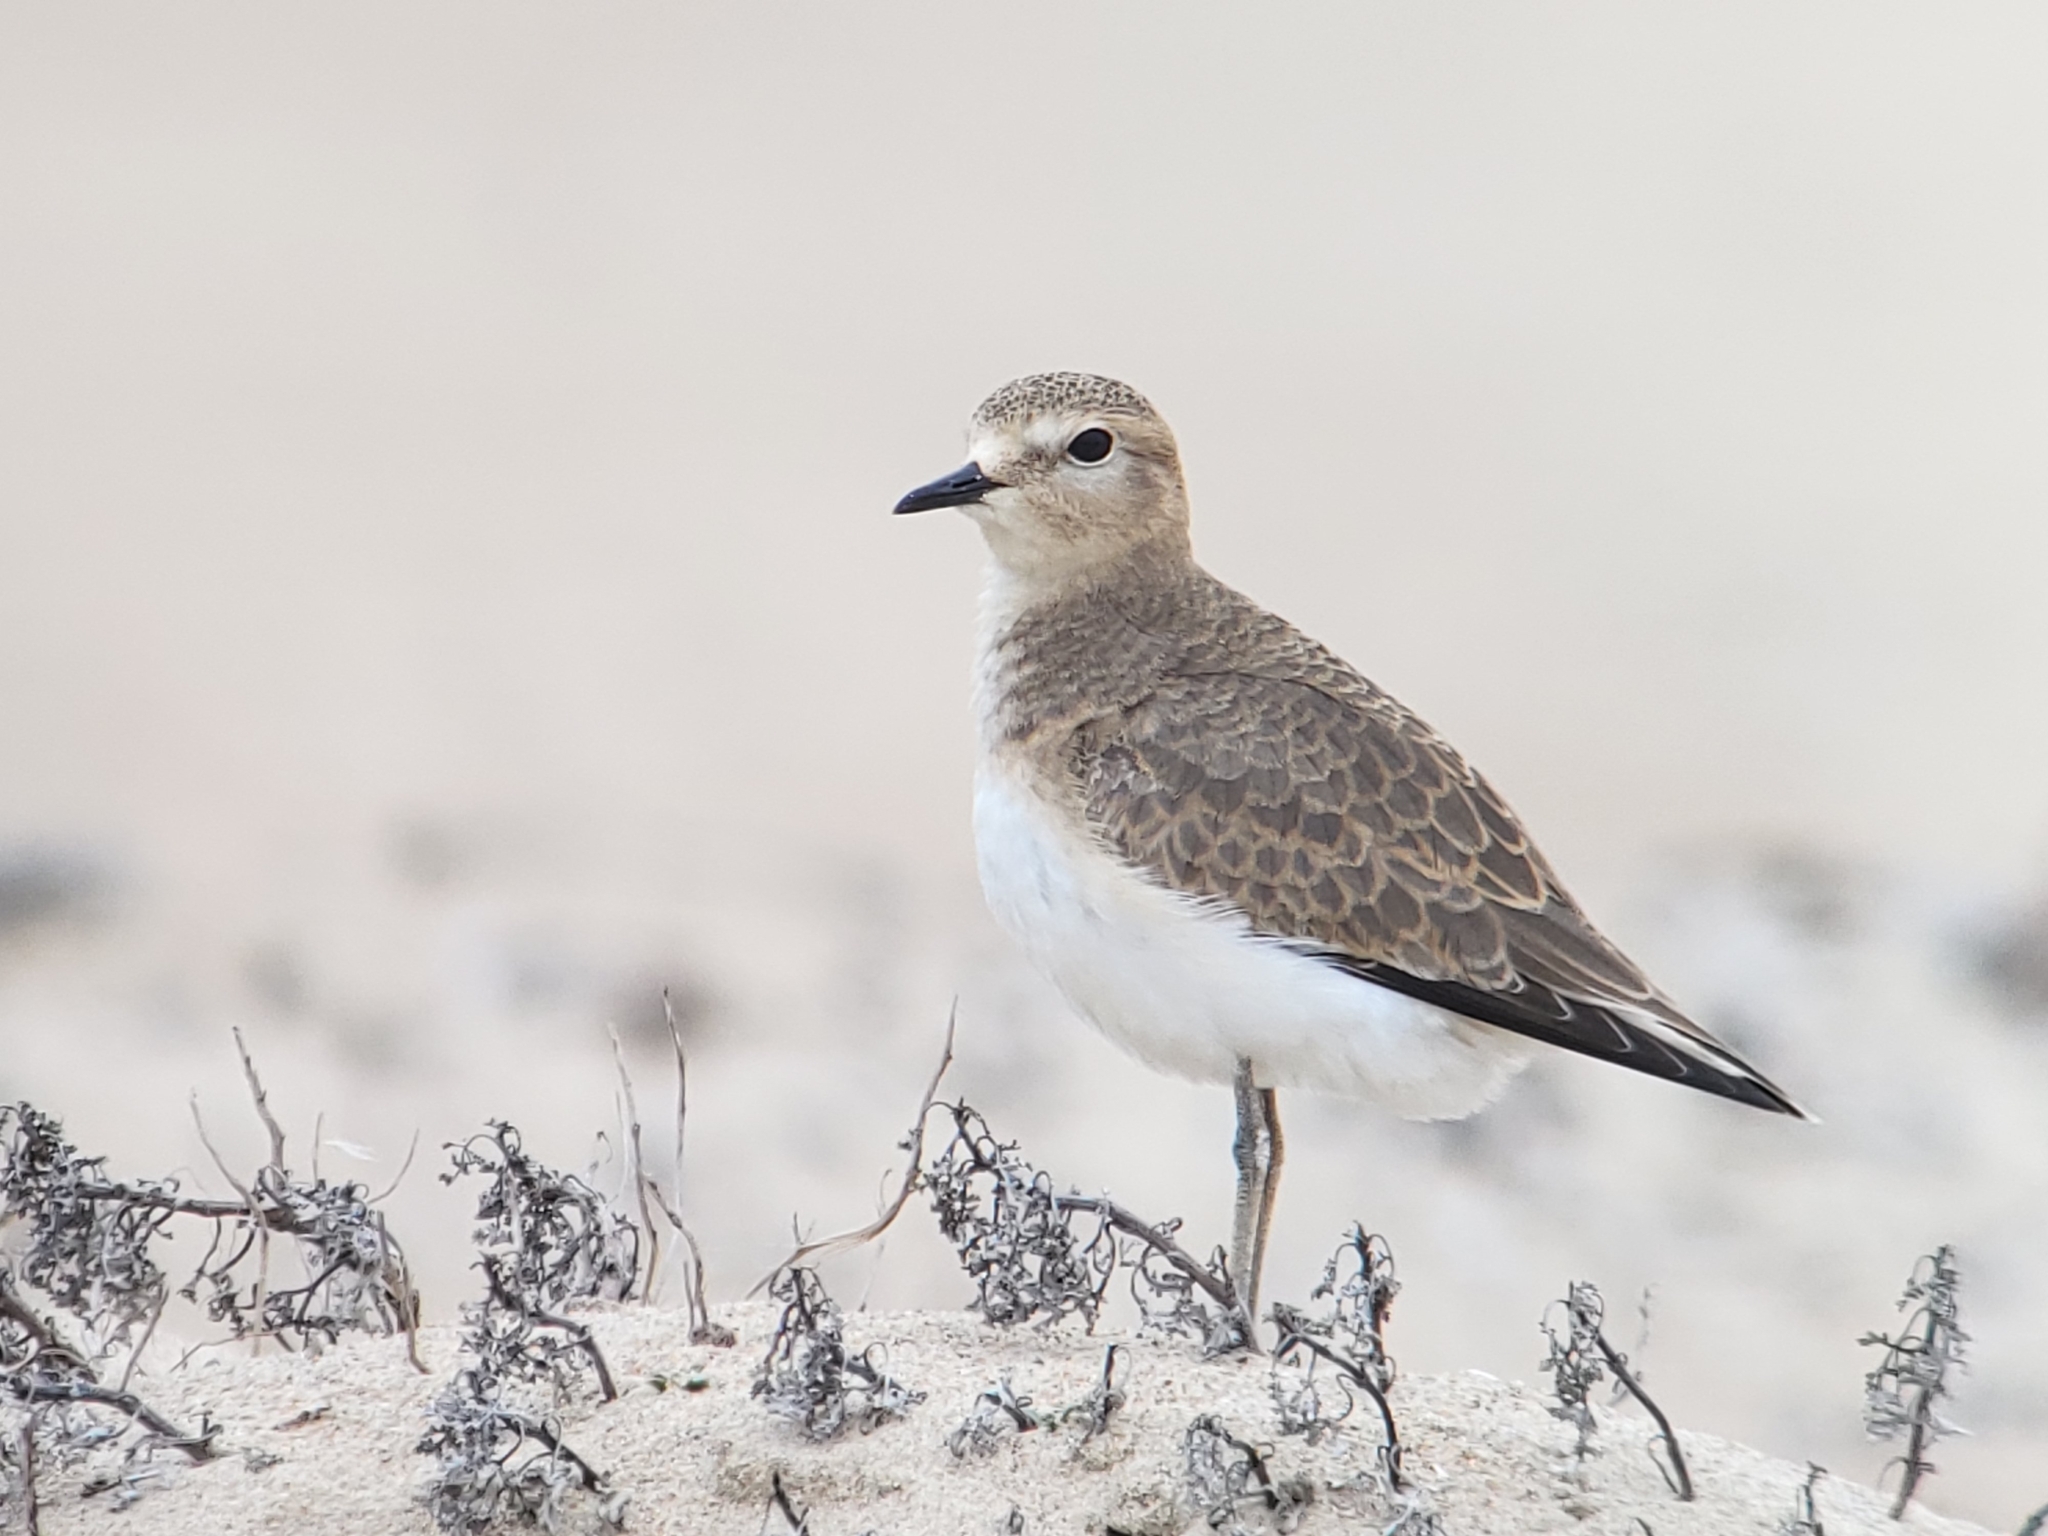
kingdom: Animalia
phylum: Chordata
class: Aves
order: Charadriiformes
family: Charadriidae
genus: Anarhynchus
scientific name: Anarhynchus
